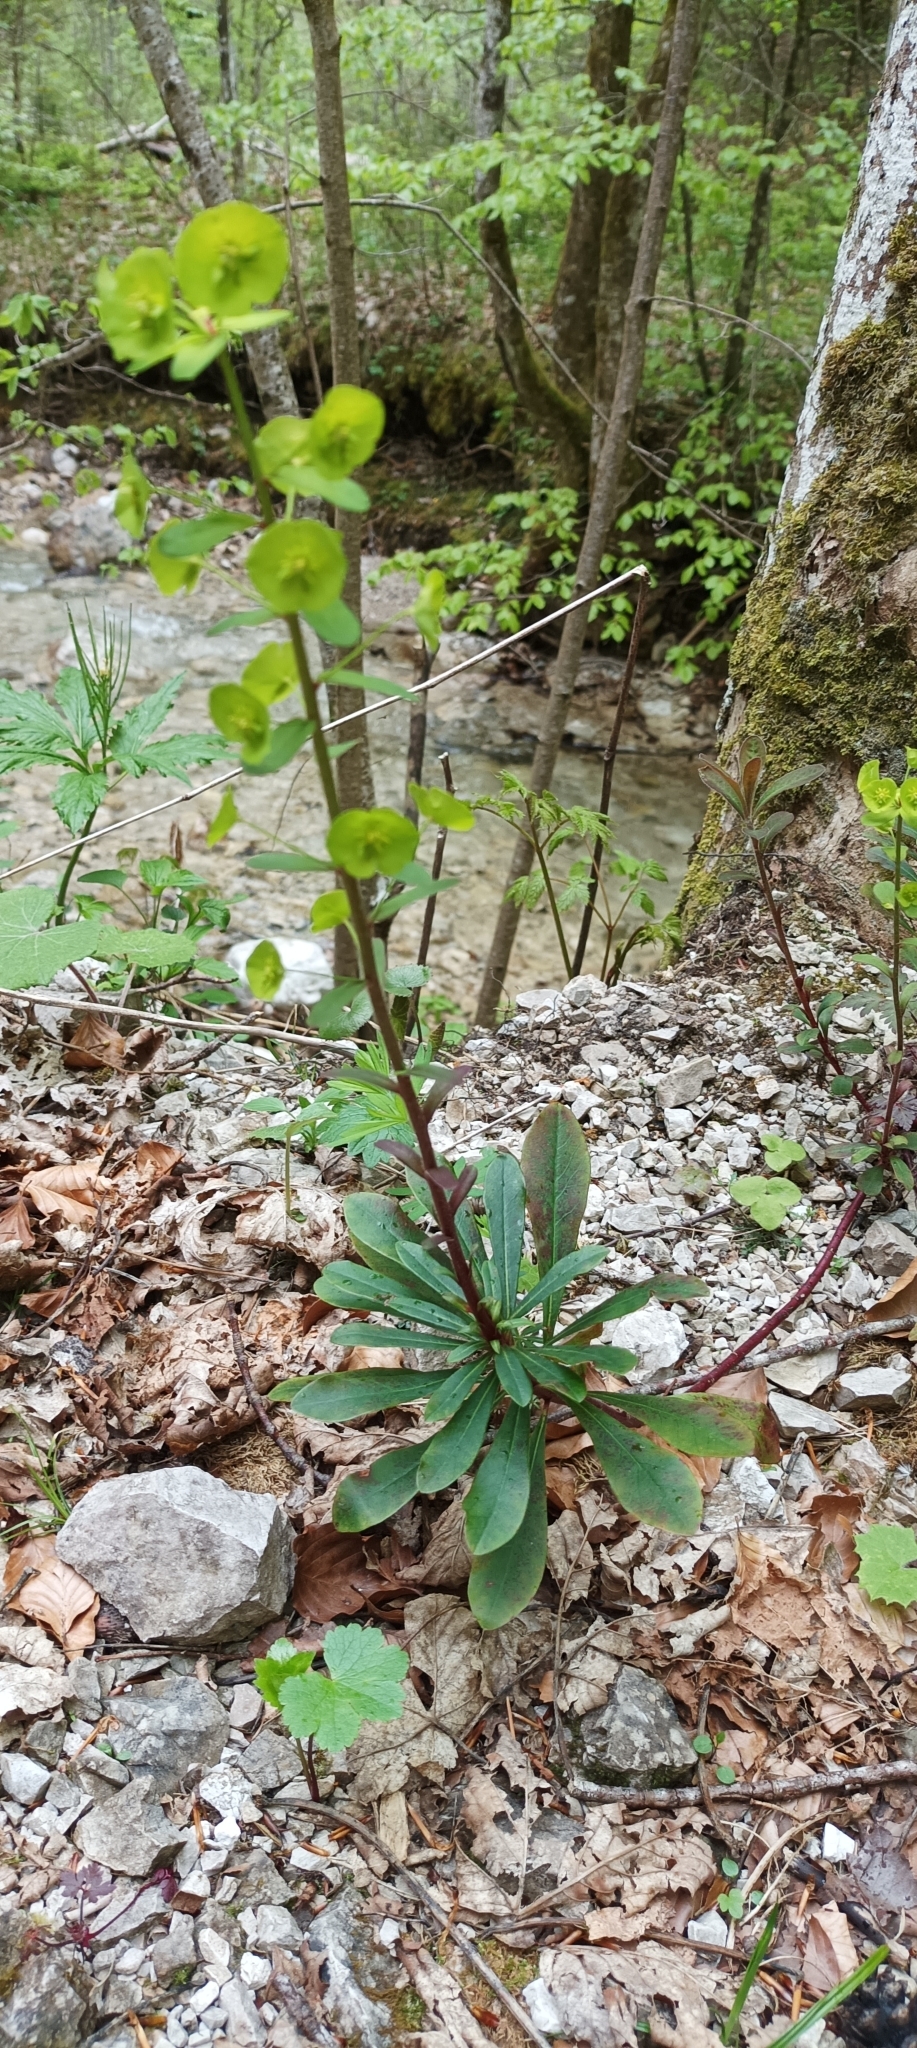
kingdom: Plantae
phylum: Tracheophyta
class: Magnoliopsida
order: Malpighiales
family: Euphorbiaceae
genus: Euphorbia
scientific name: Euphorbia amygdaloides
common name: Wood spurge
